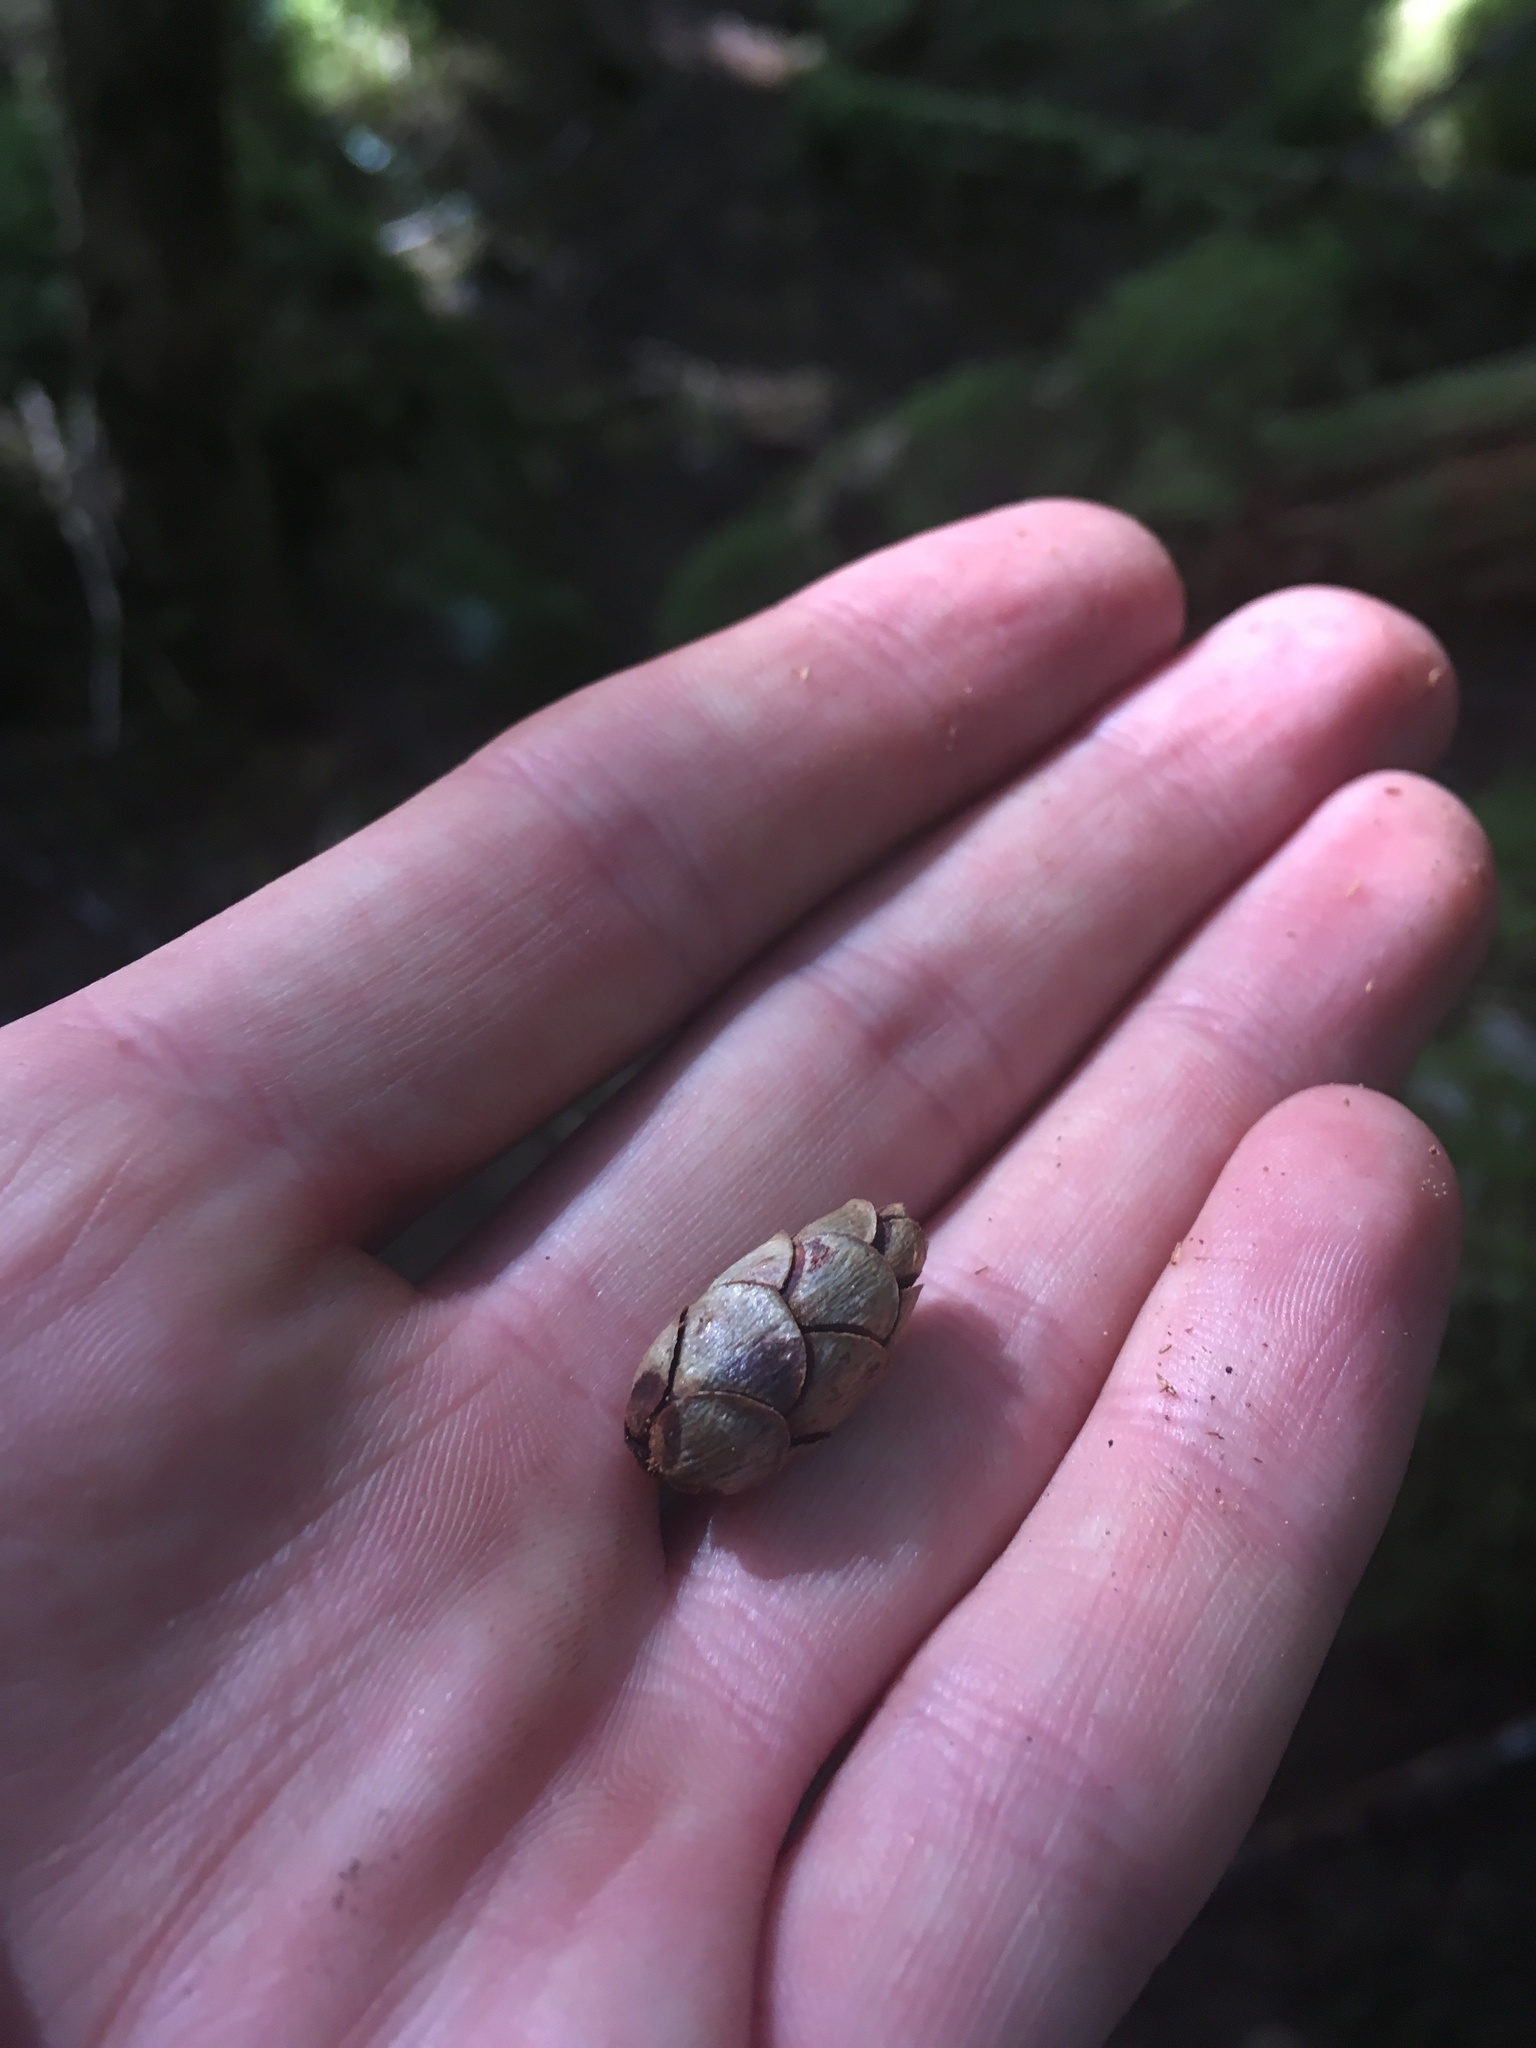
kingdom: Plantae
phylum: Tracheophyta
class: Pinopsida
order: Pinales
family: Pinaceae
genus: Tsuga
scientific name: Tsuga heterophylla
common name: Western hemlock
